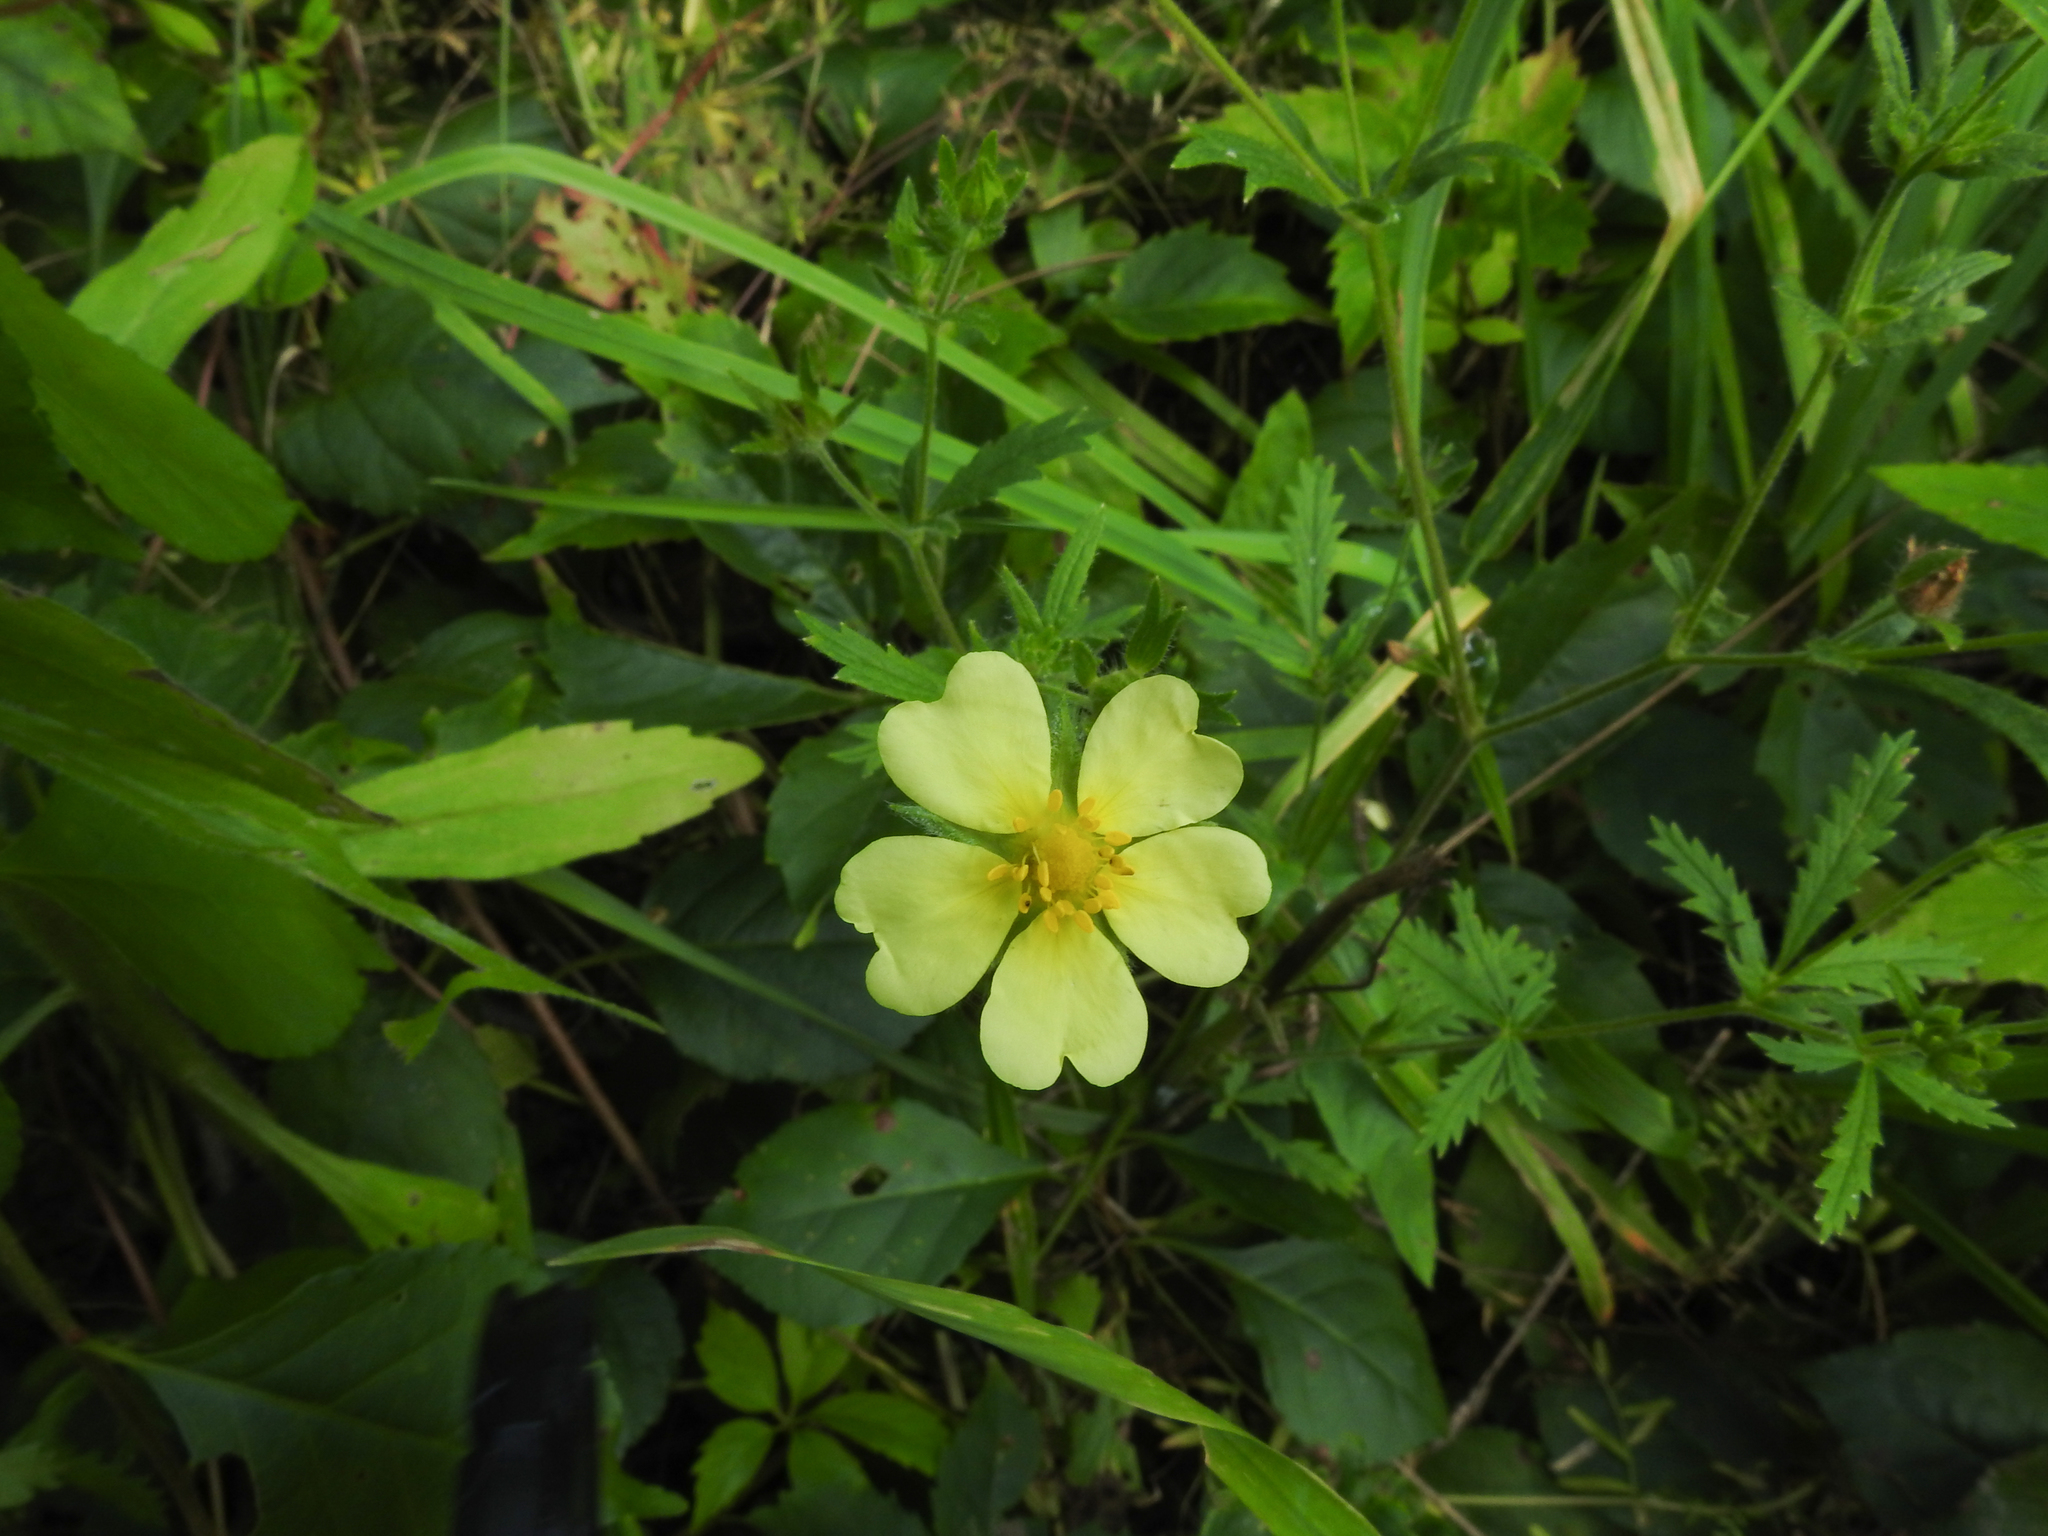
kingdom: Plantae
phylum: Tracheophyta
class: Magnoliopsida
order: Rosales
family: Rosaceae
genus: Potentilla
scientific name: Potentilla recta
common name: Sulphur cinquefoil
